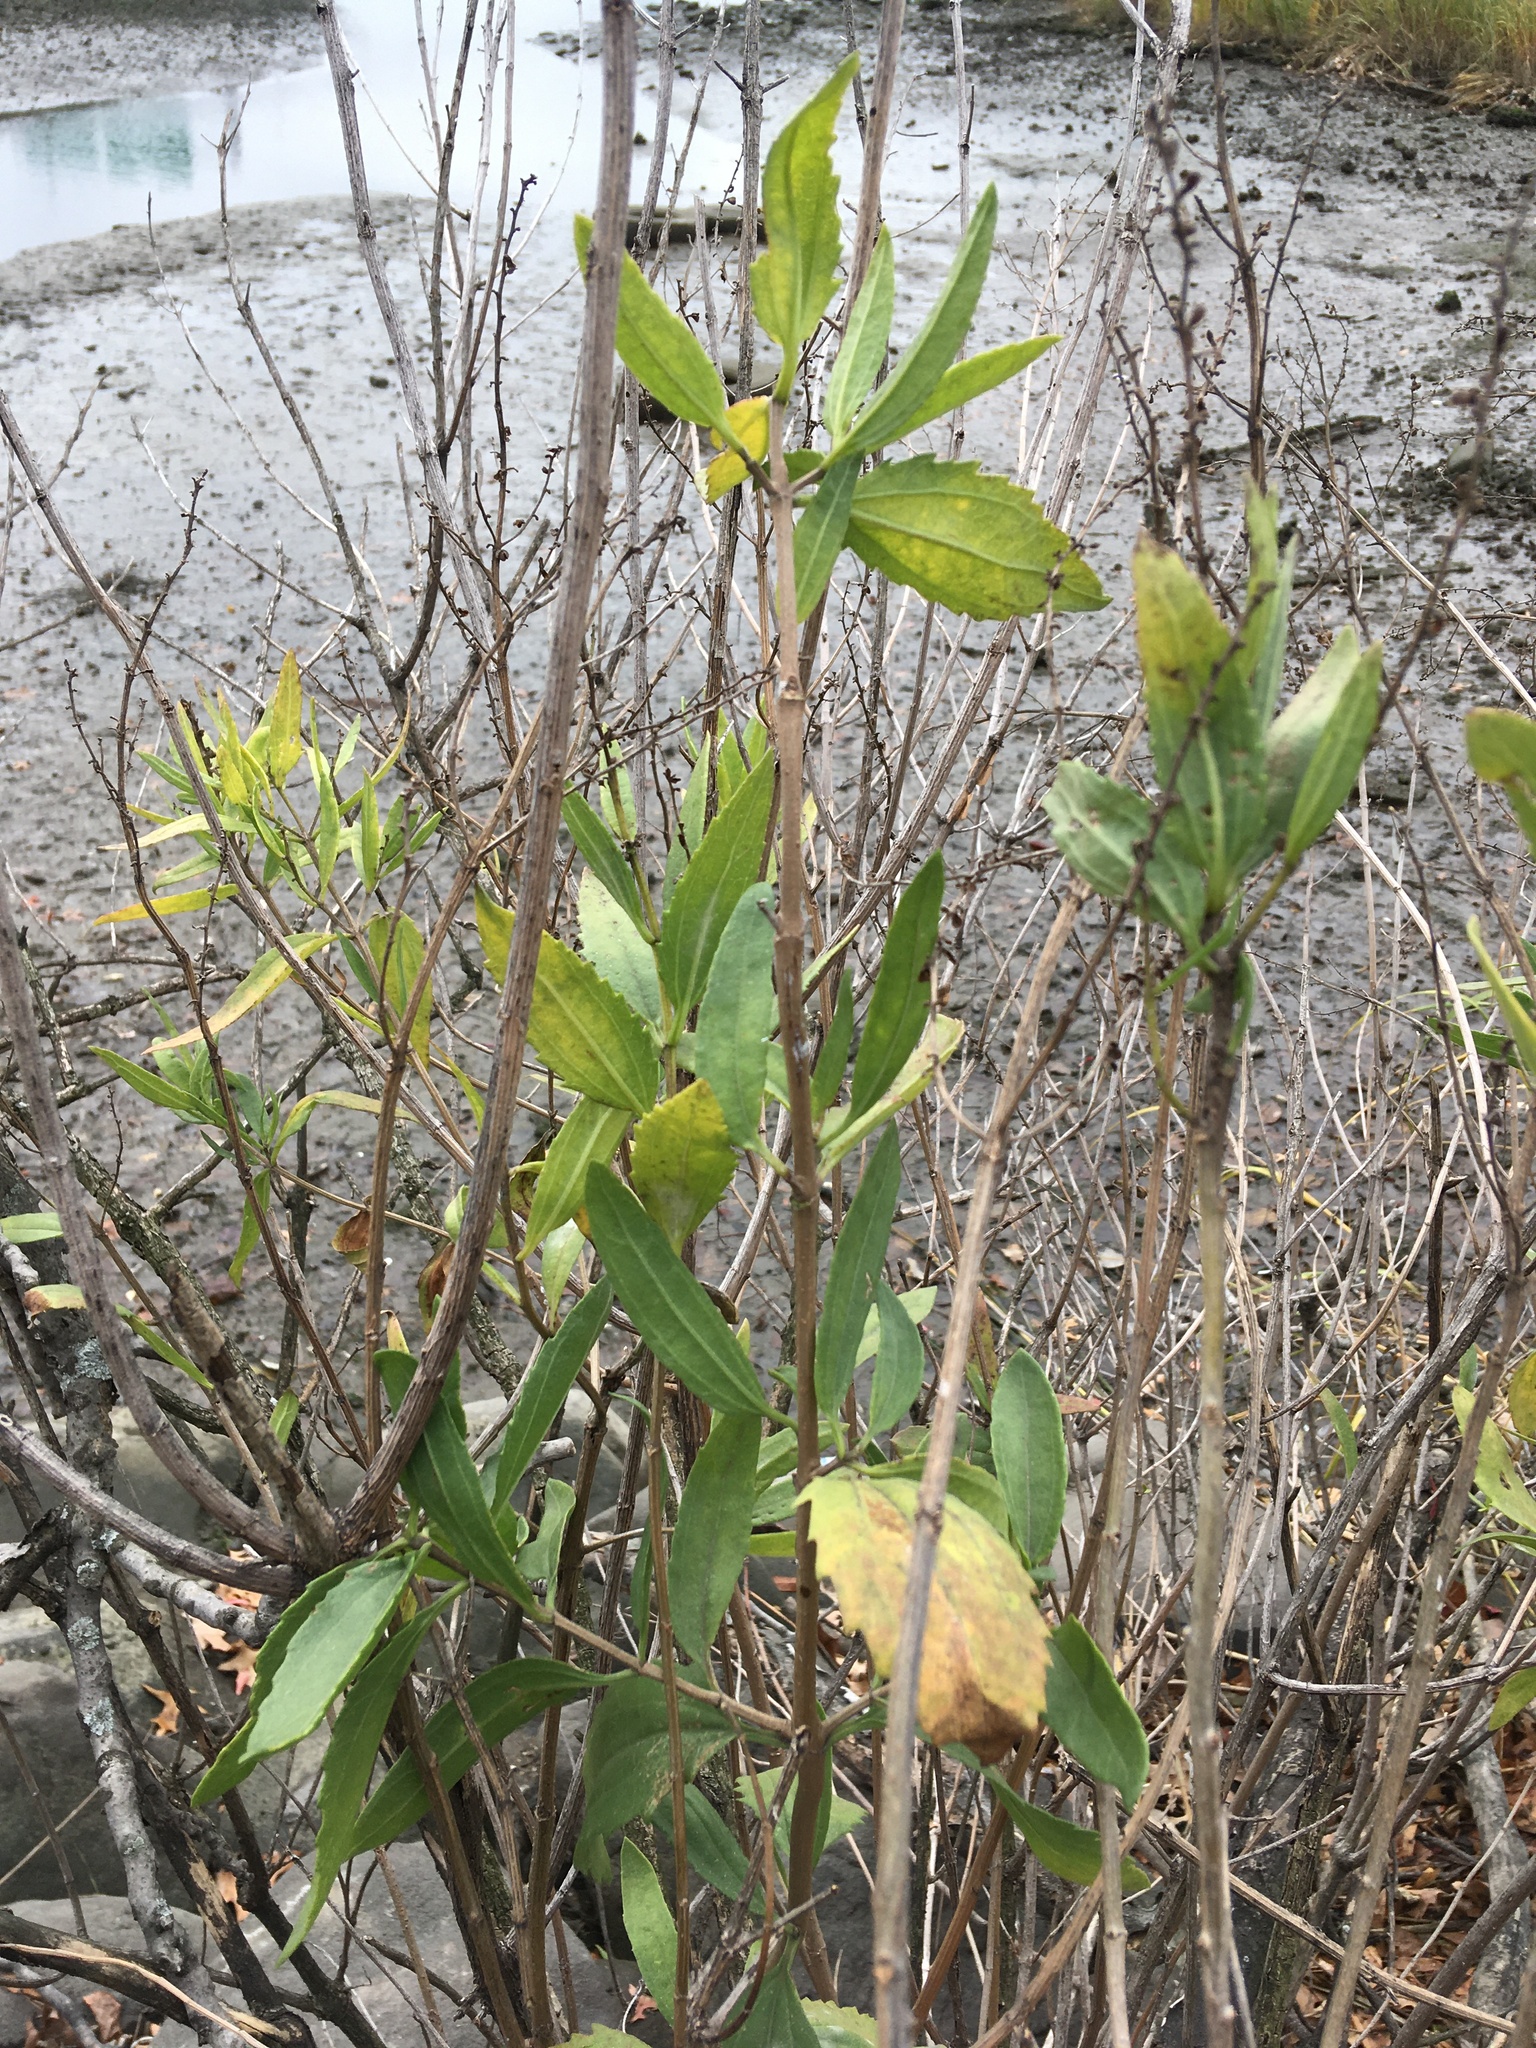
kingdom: Plantae
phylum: Tracheophyta
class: Magnoliopsida
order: Asterales
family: Asteraceae
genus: Iva
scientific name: Iva frutescens
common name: Big-leaved marsh-elder
